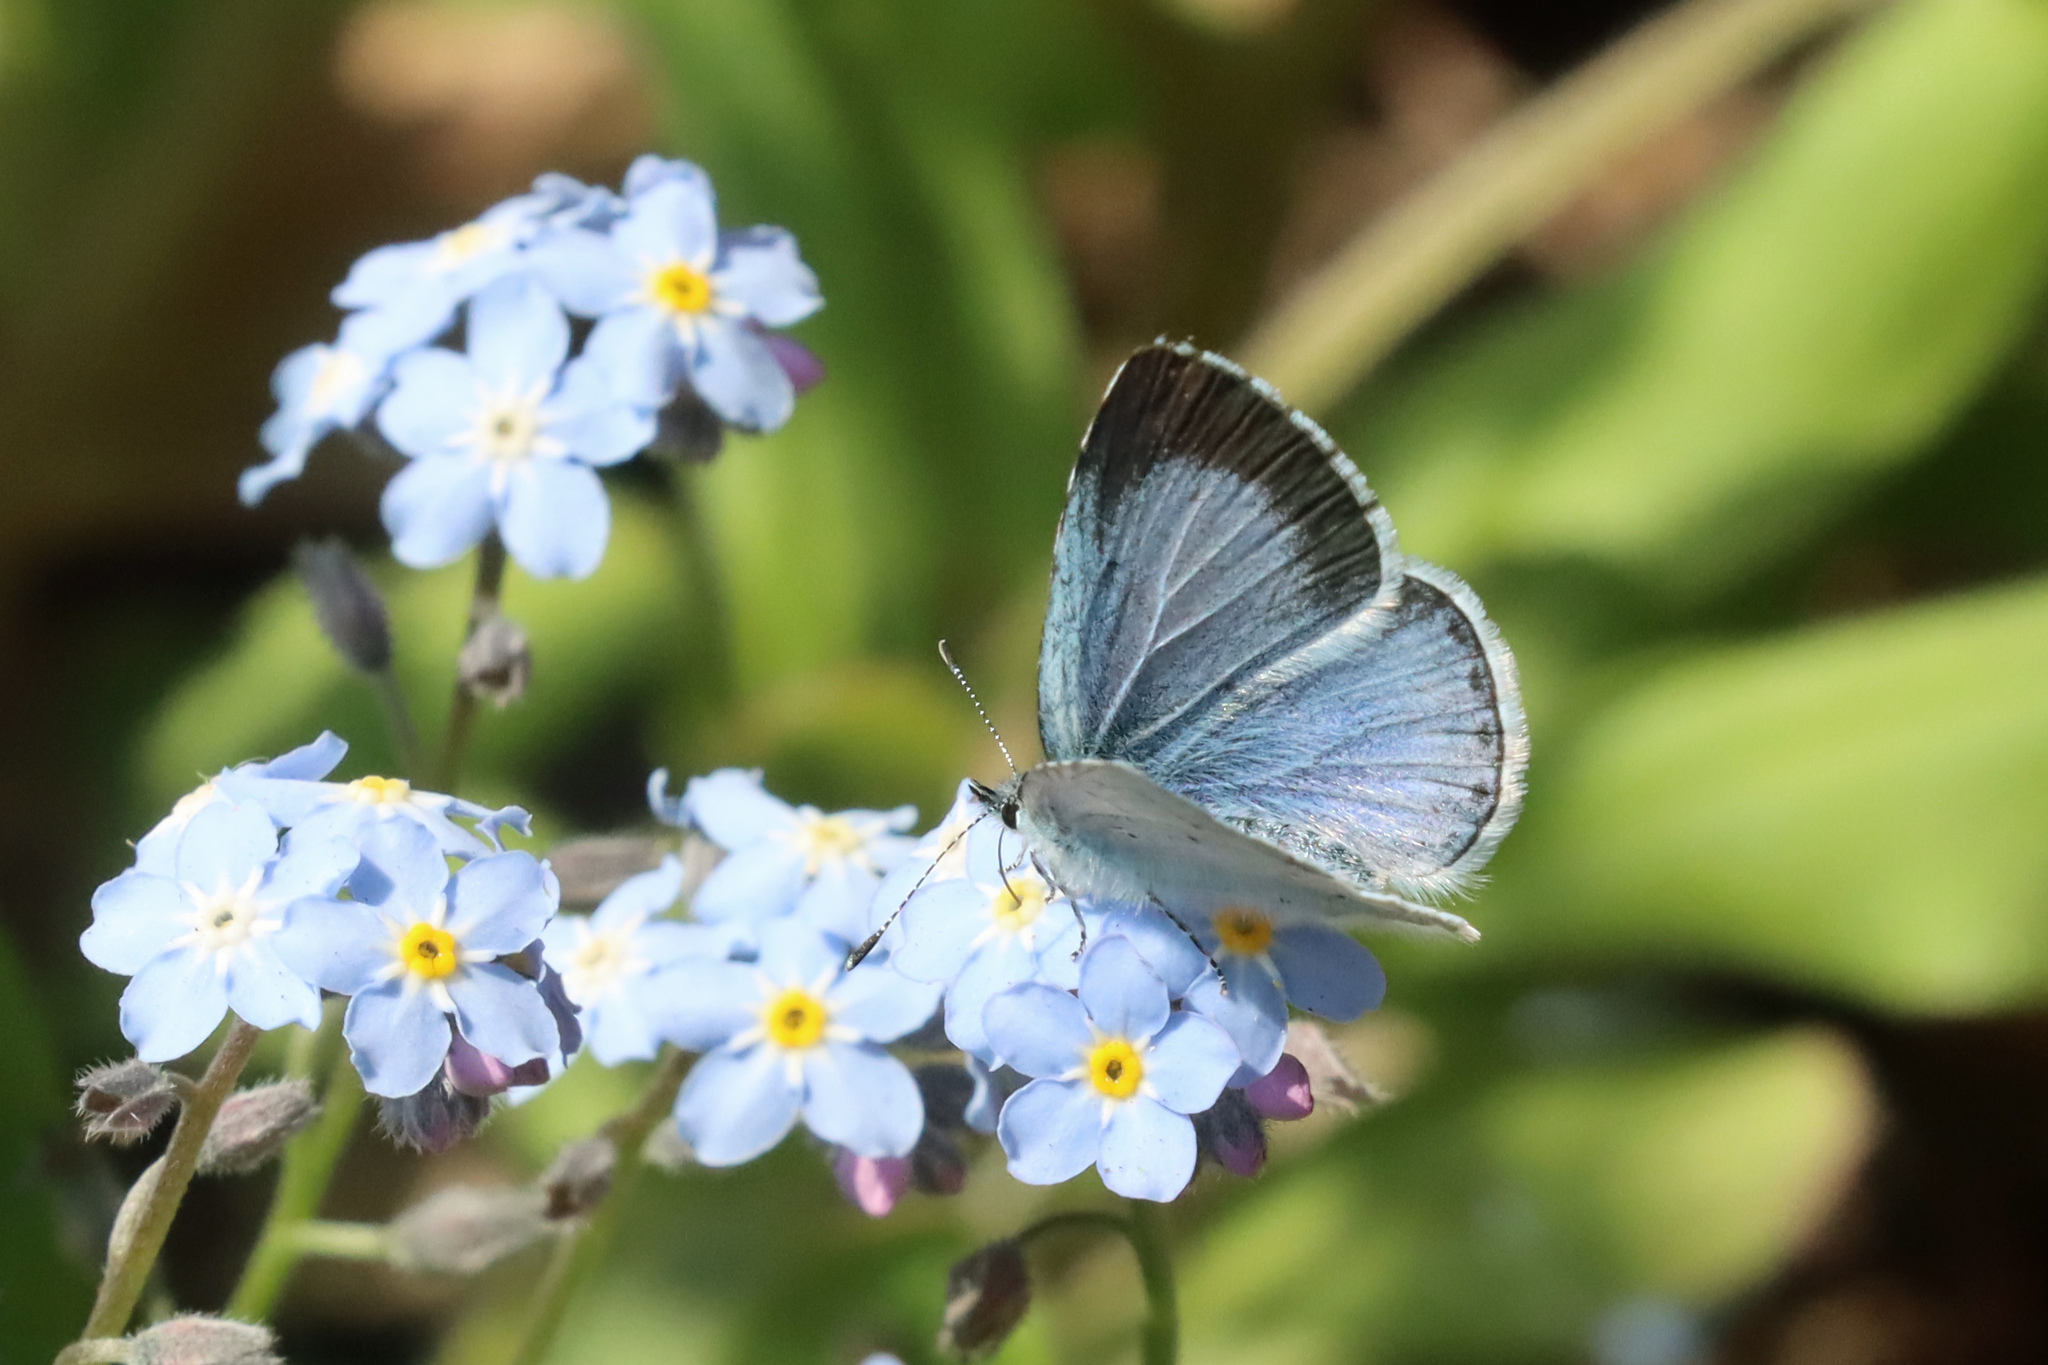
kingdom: Animalia
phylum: Arthropoda
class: Insecta
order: Lepidoptera
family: Lycaenidae
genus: Celastrina
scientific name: Celastrina argiolus
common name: Holly blue
